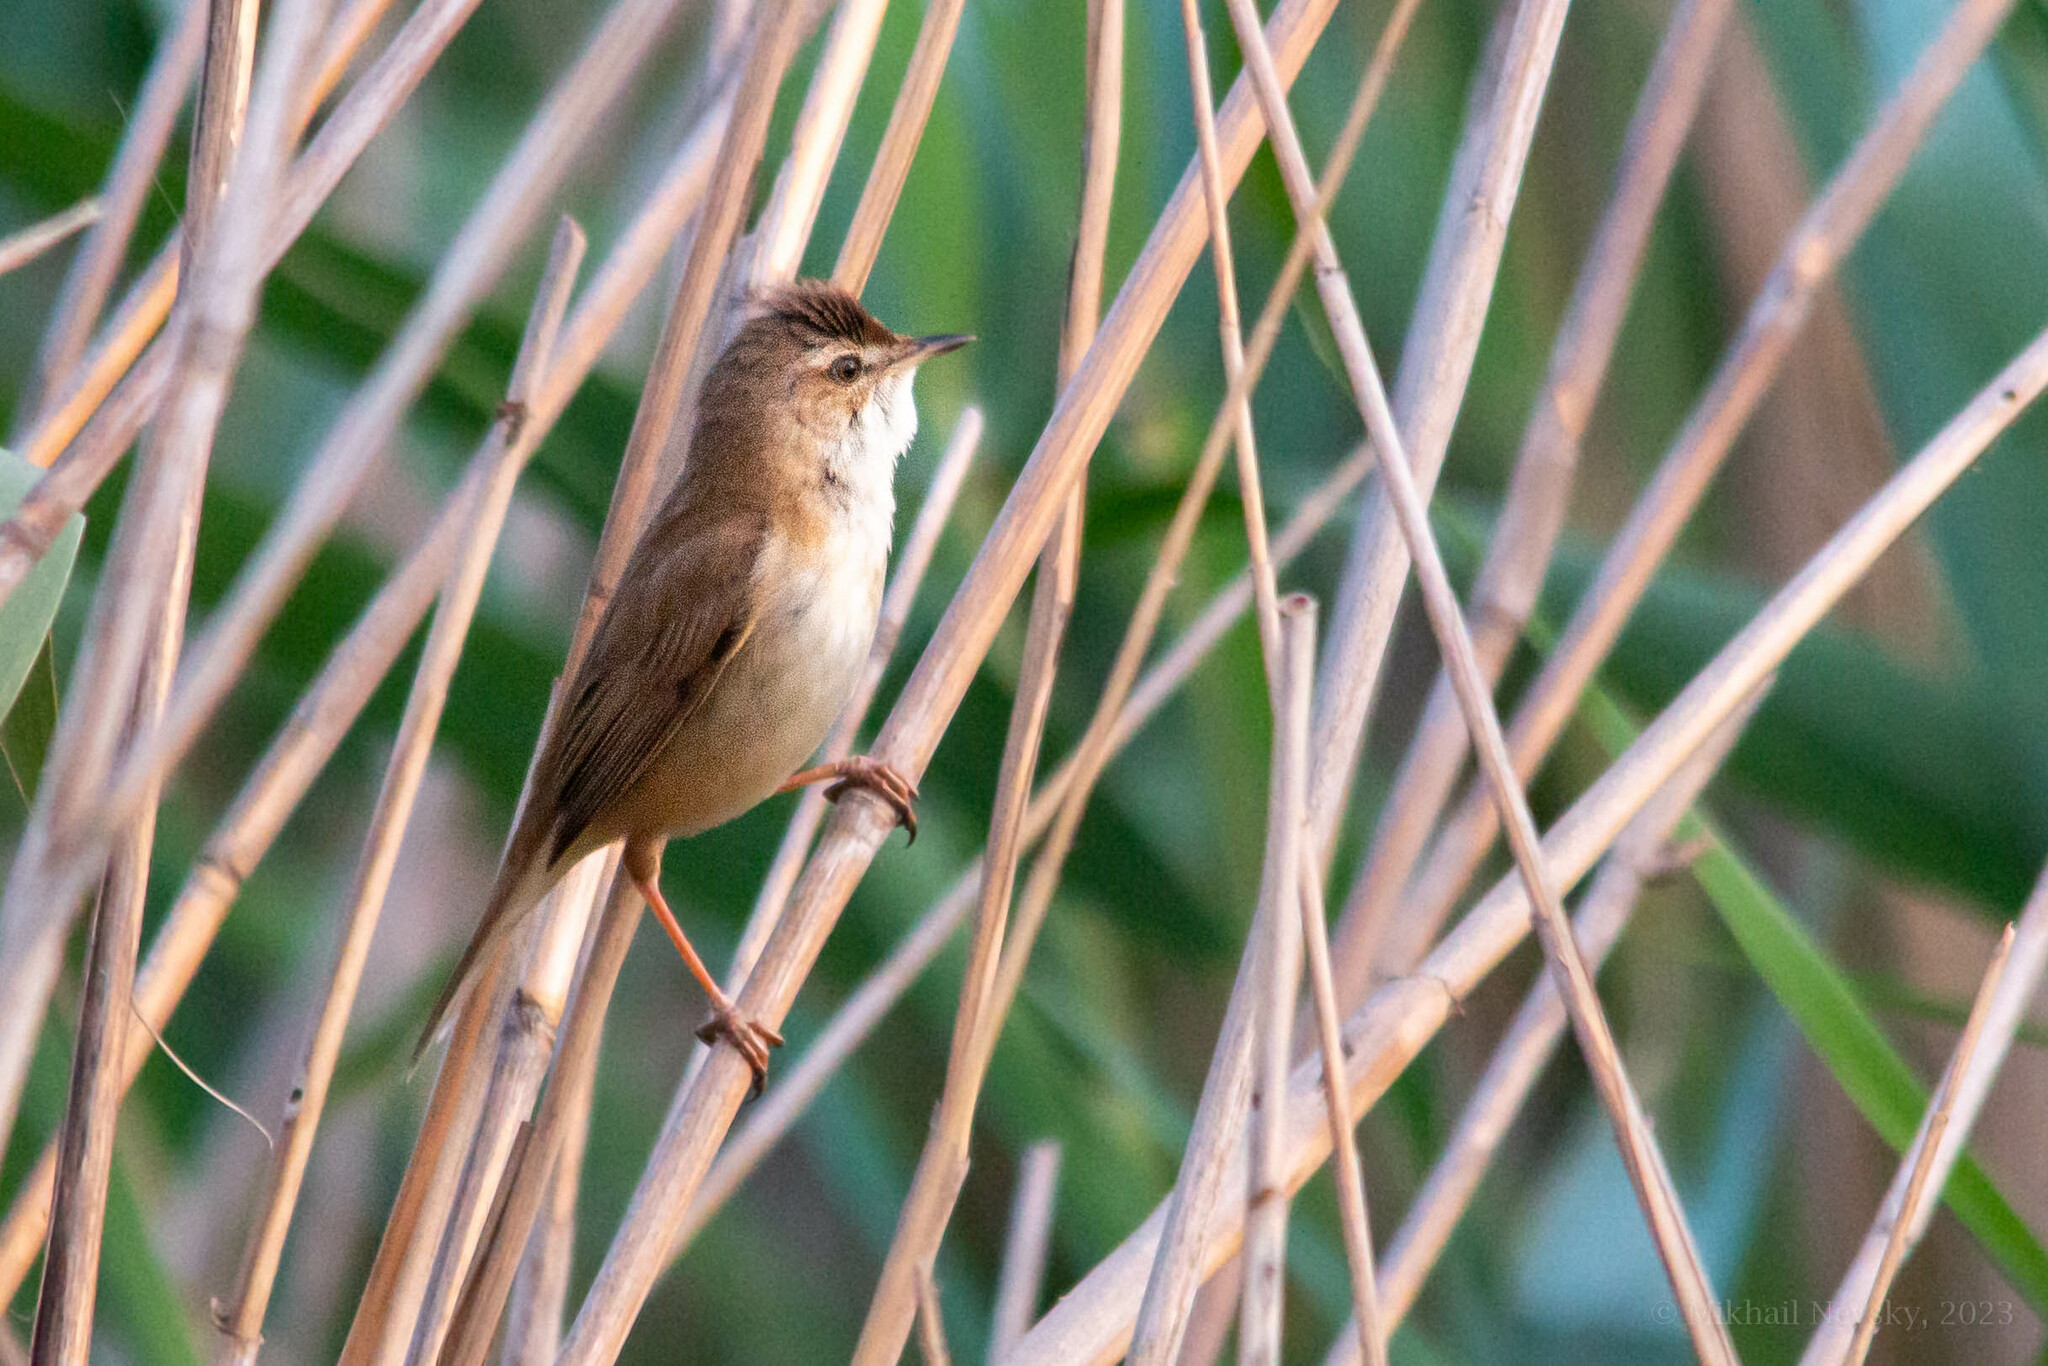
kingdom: Animalia
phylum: Chordata
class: Aves
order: Passeriformes
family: Acrocephalidae
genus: Acrocephalus
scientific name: Acrocephalus agricola
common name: Paddyfield warbler
